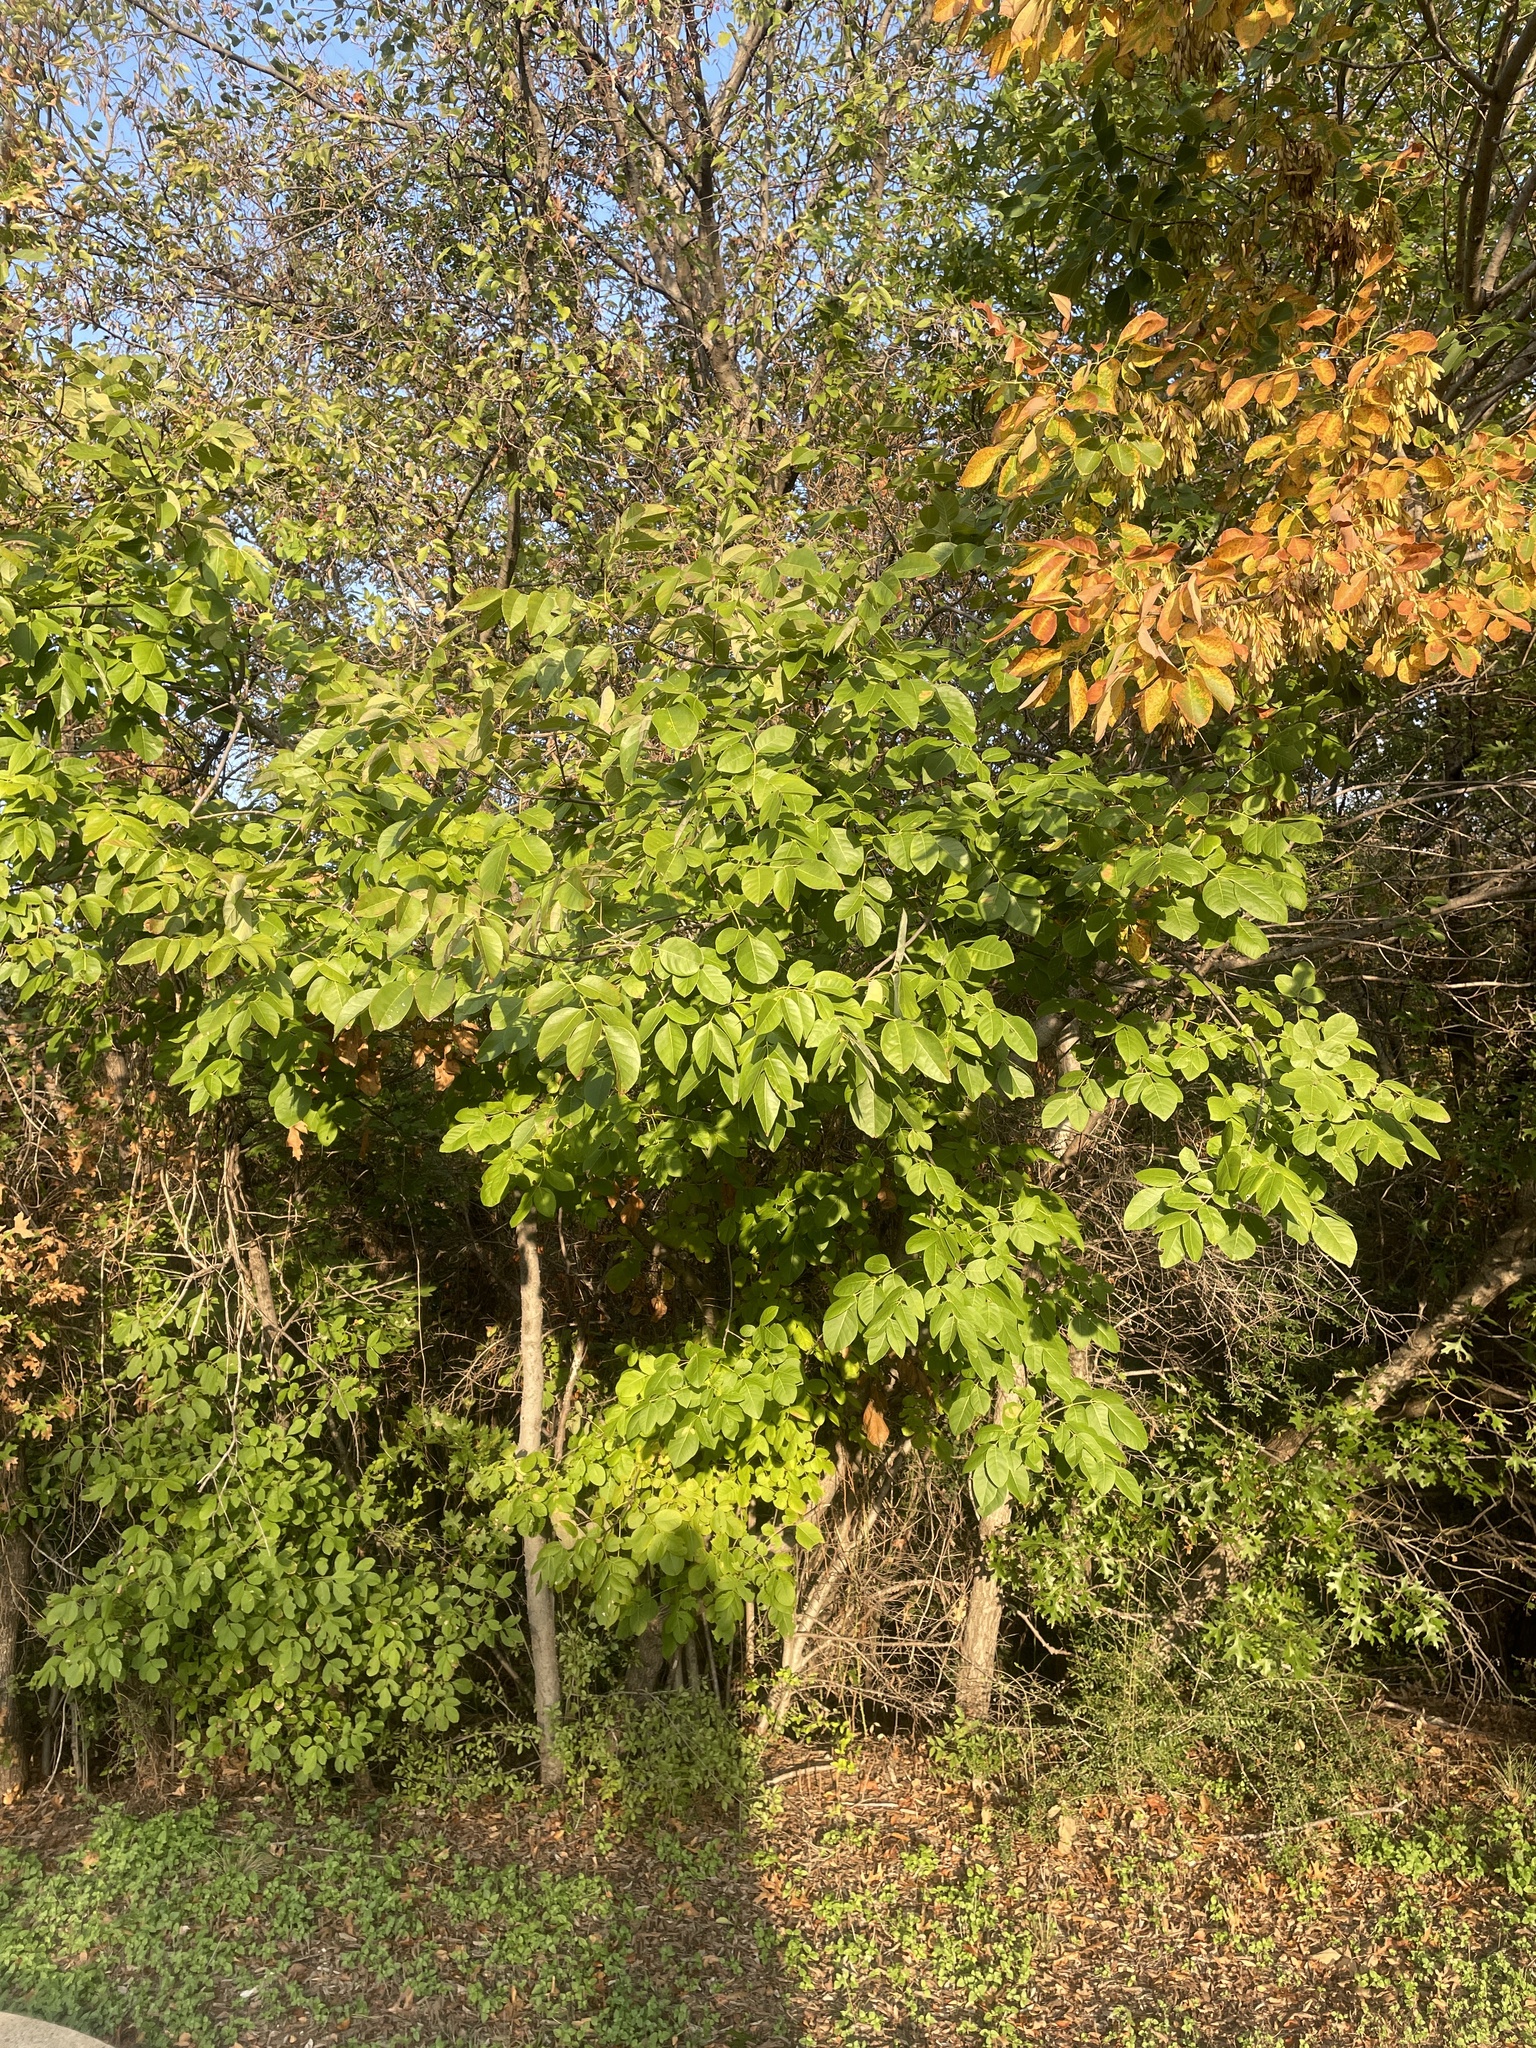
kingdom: Plantae
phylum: Tracheophyta
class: Magnoliopsida
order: Lamiales
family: Oleaceae
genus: Fraxinus
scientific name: Fraxinus albicans
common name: Texas ash
